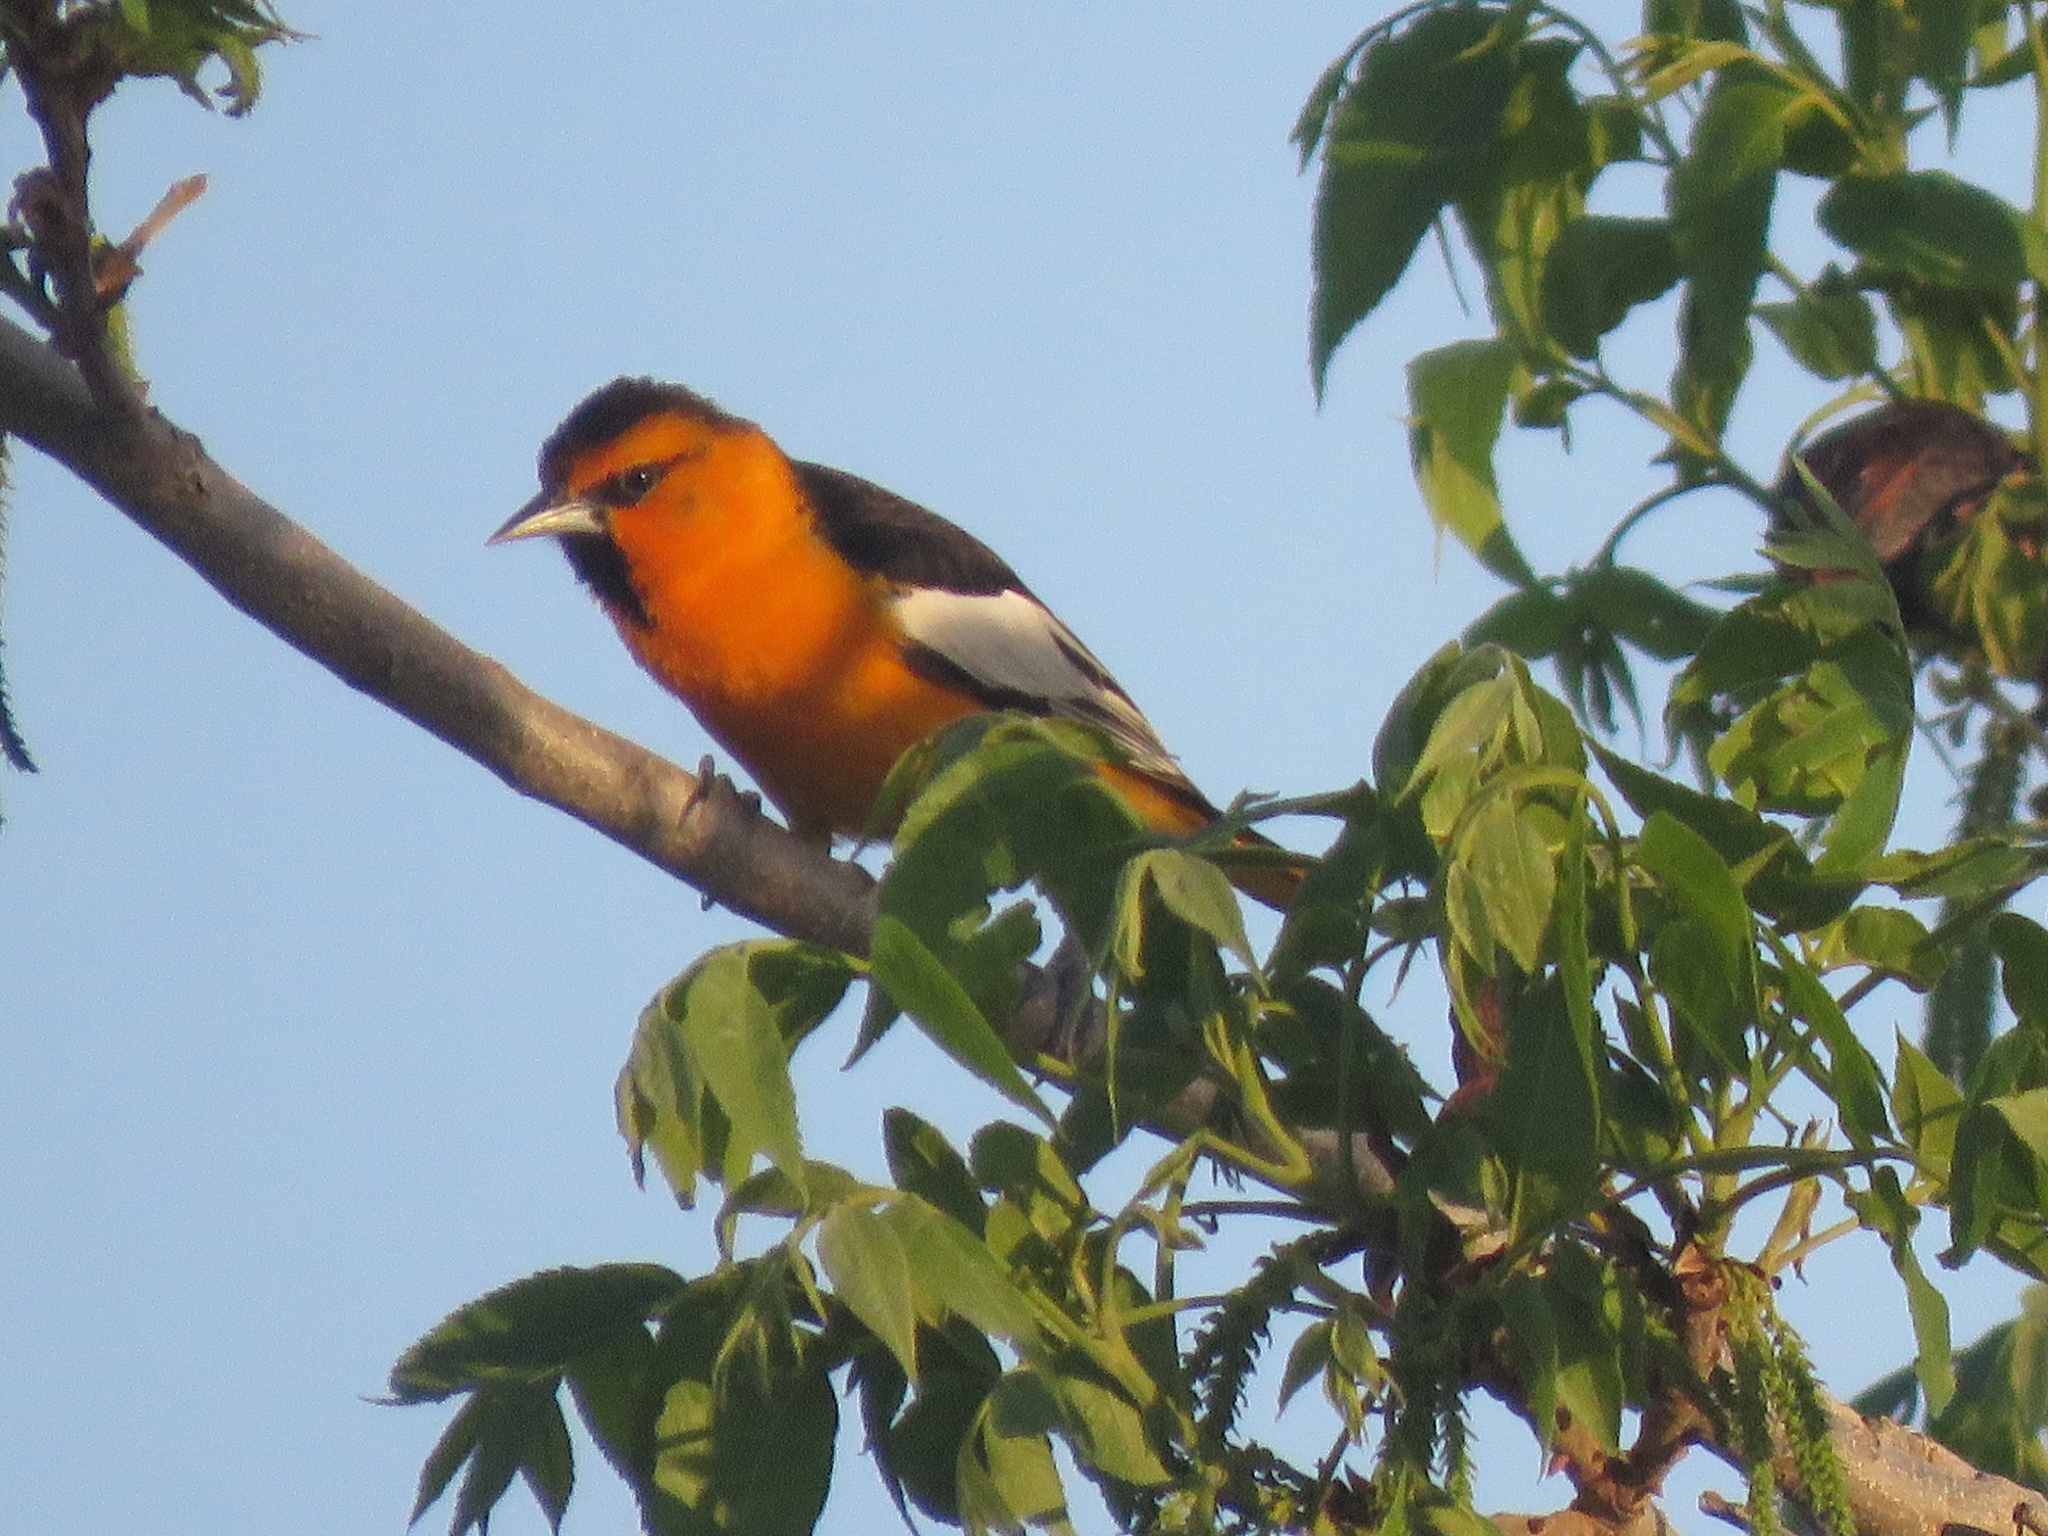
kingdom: Animalia
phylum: Chordata
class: Aves
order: Passeriformes
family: Icteridae
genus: Icterus
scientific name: Icterus bullockii
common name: Bullock's oriole
